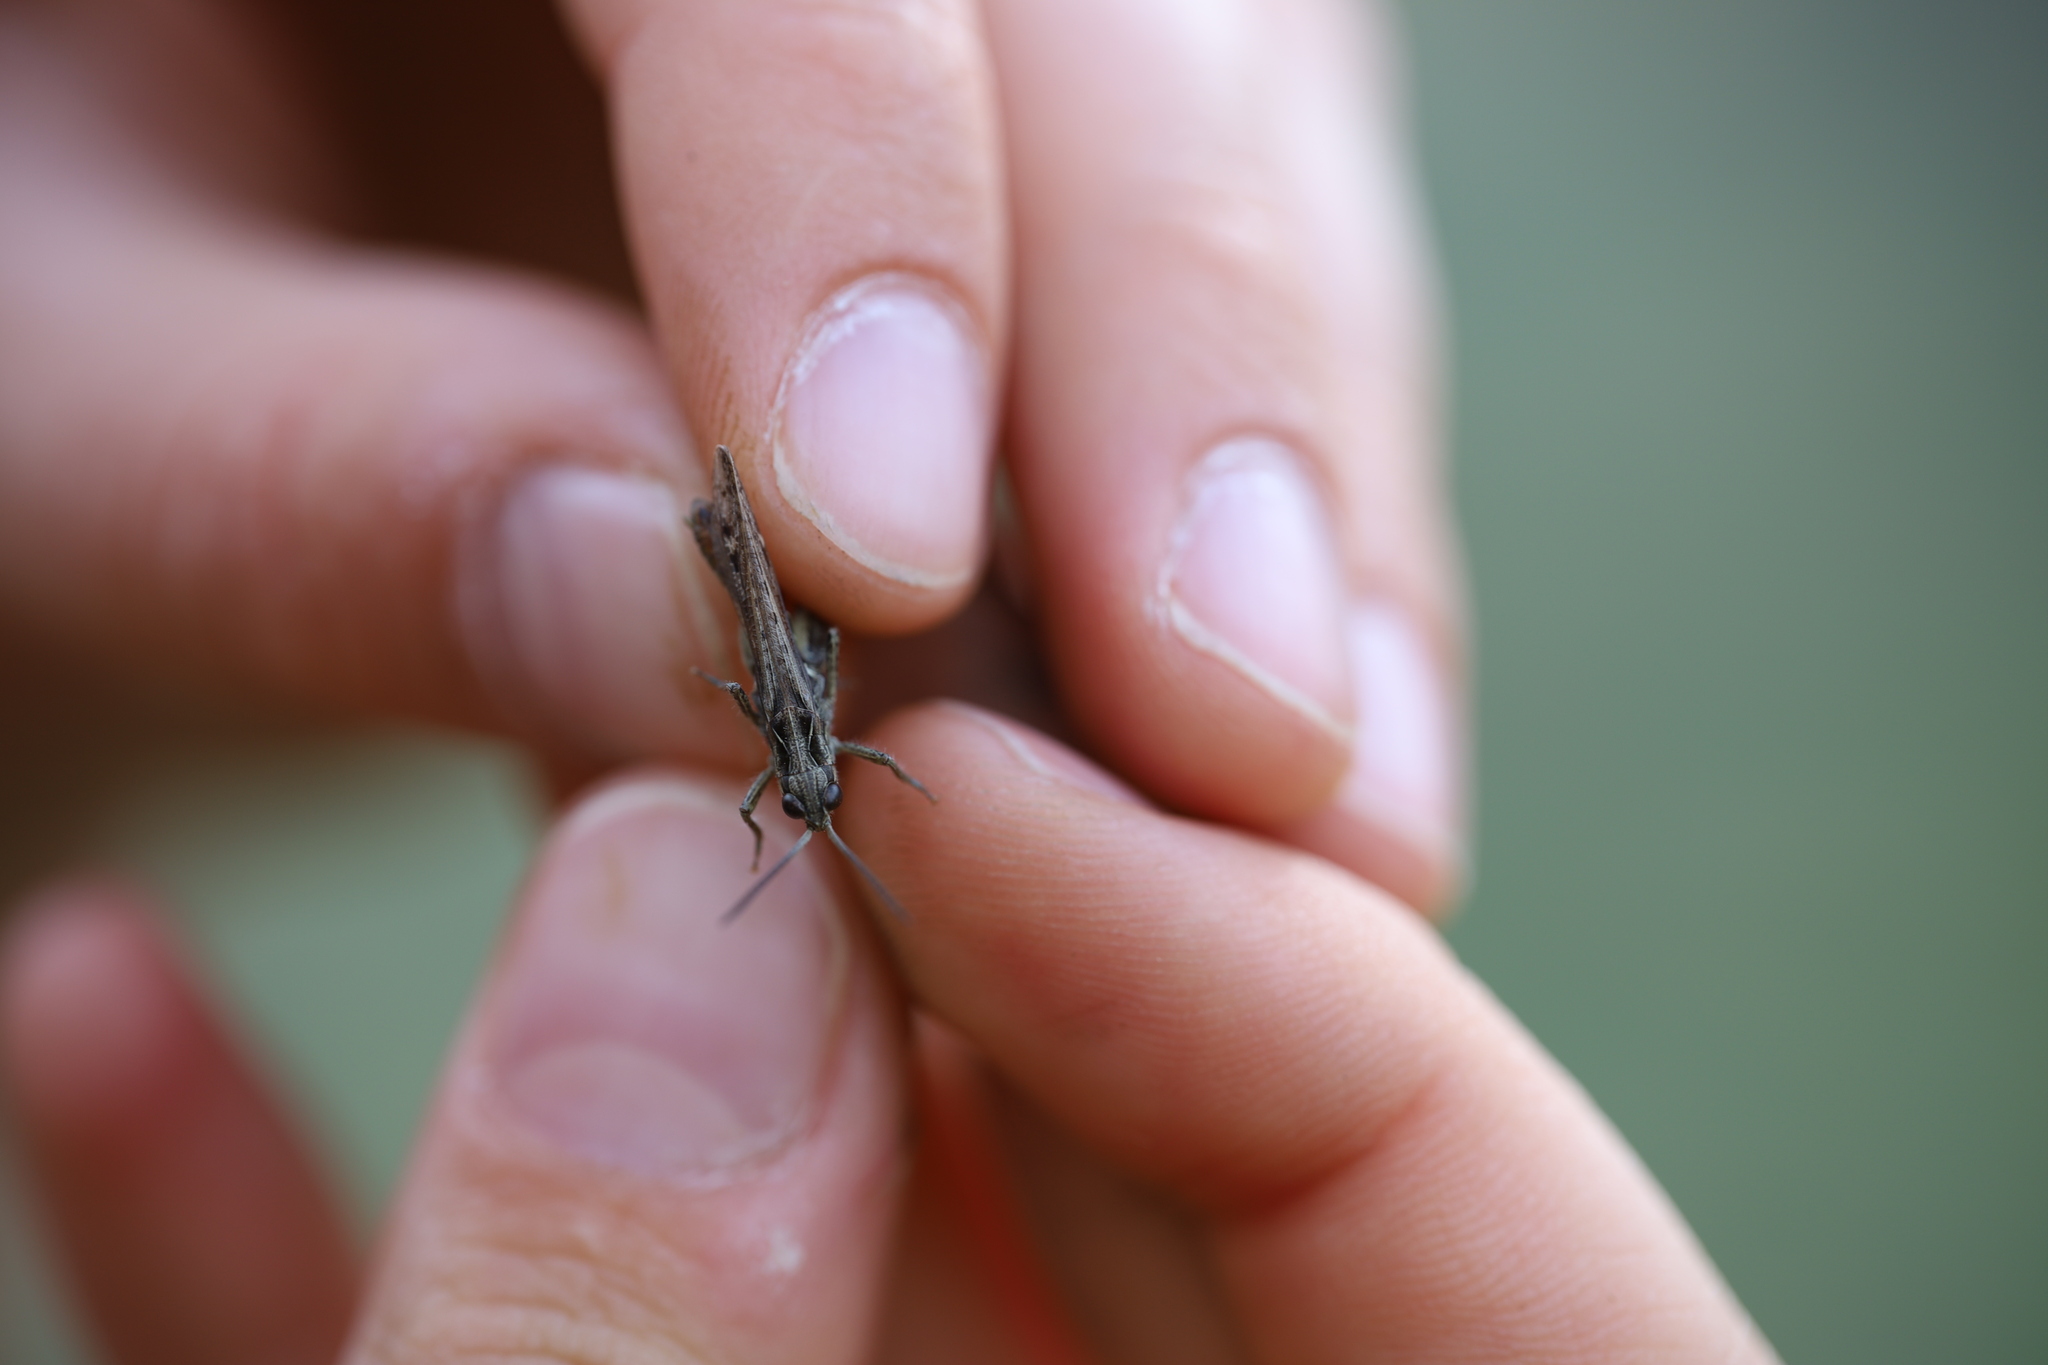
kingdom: Animalia
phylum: Arthropoda
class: Insecta
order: Orthoptera
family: Acrididae
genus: Chorthippus
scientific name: Chorthippus mollis
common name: Lesser field grasshopper
